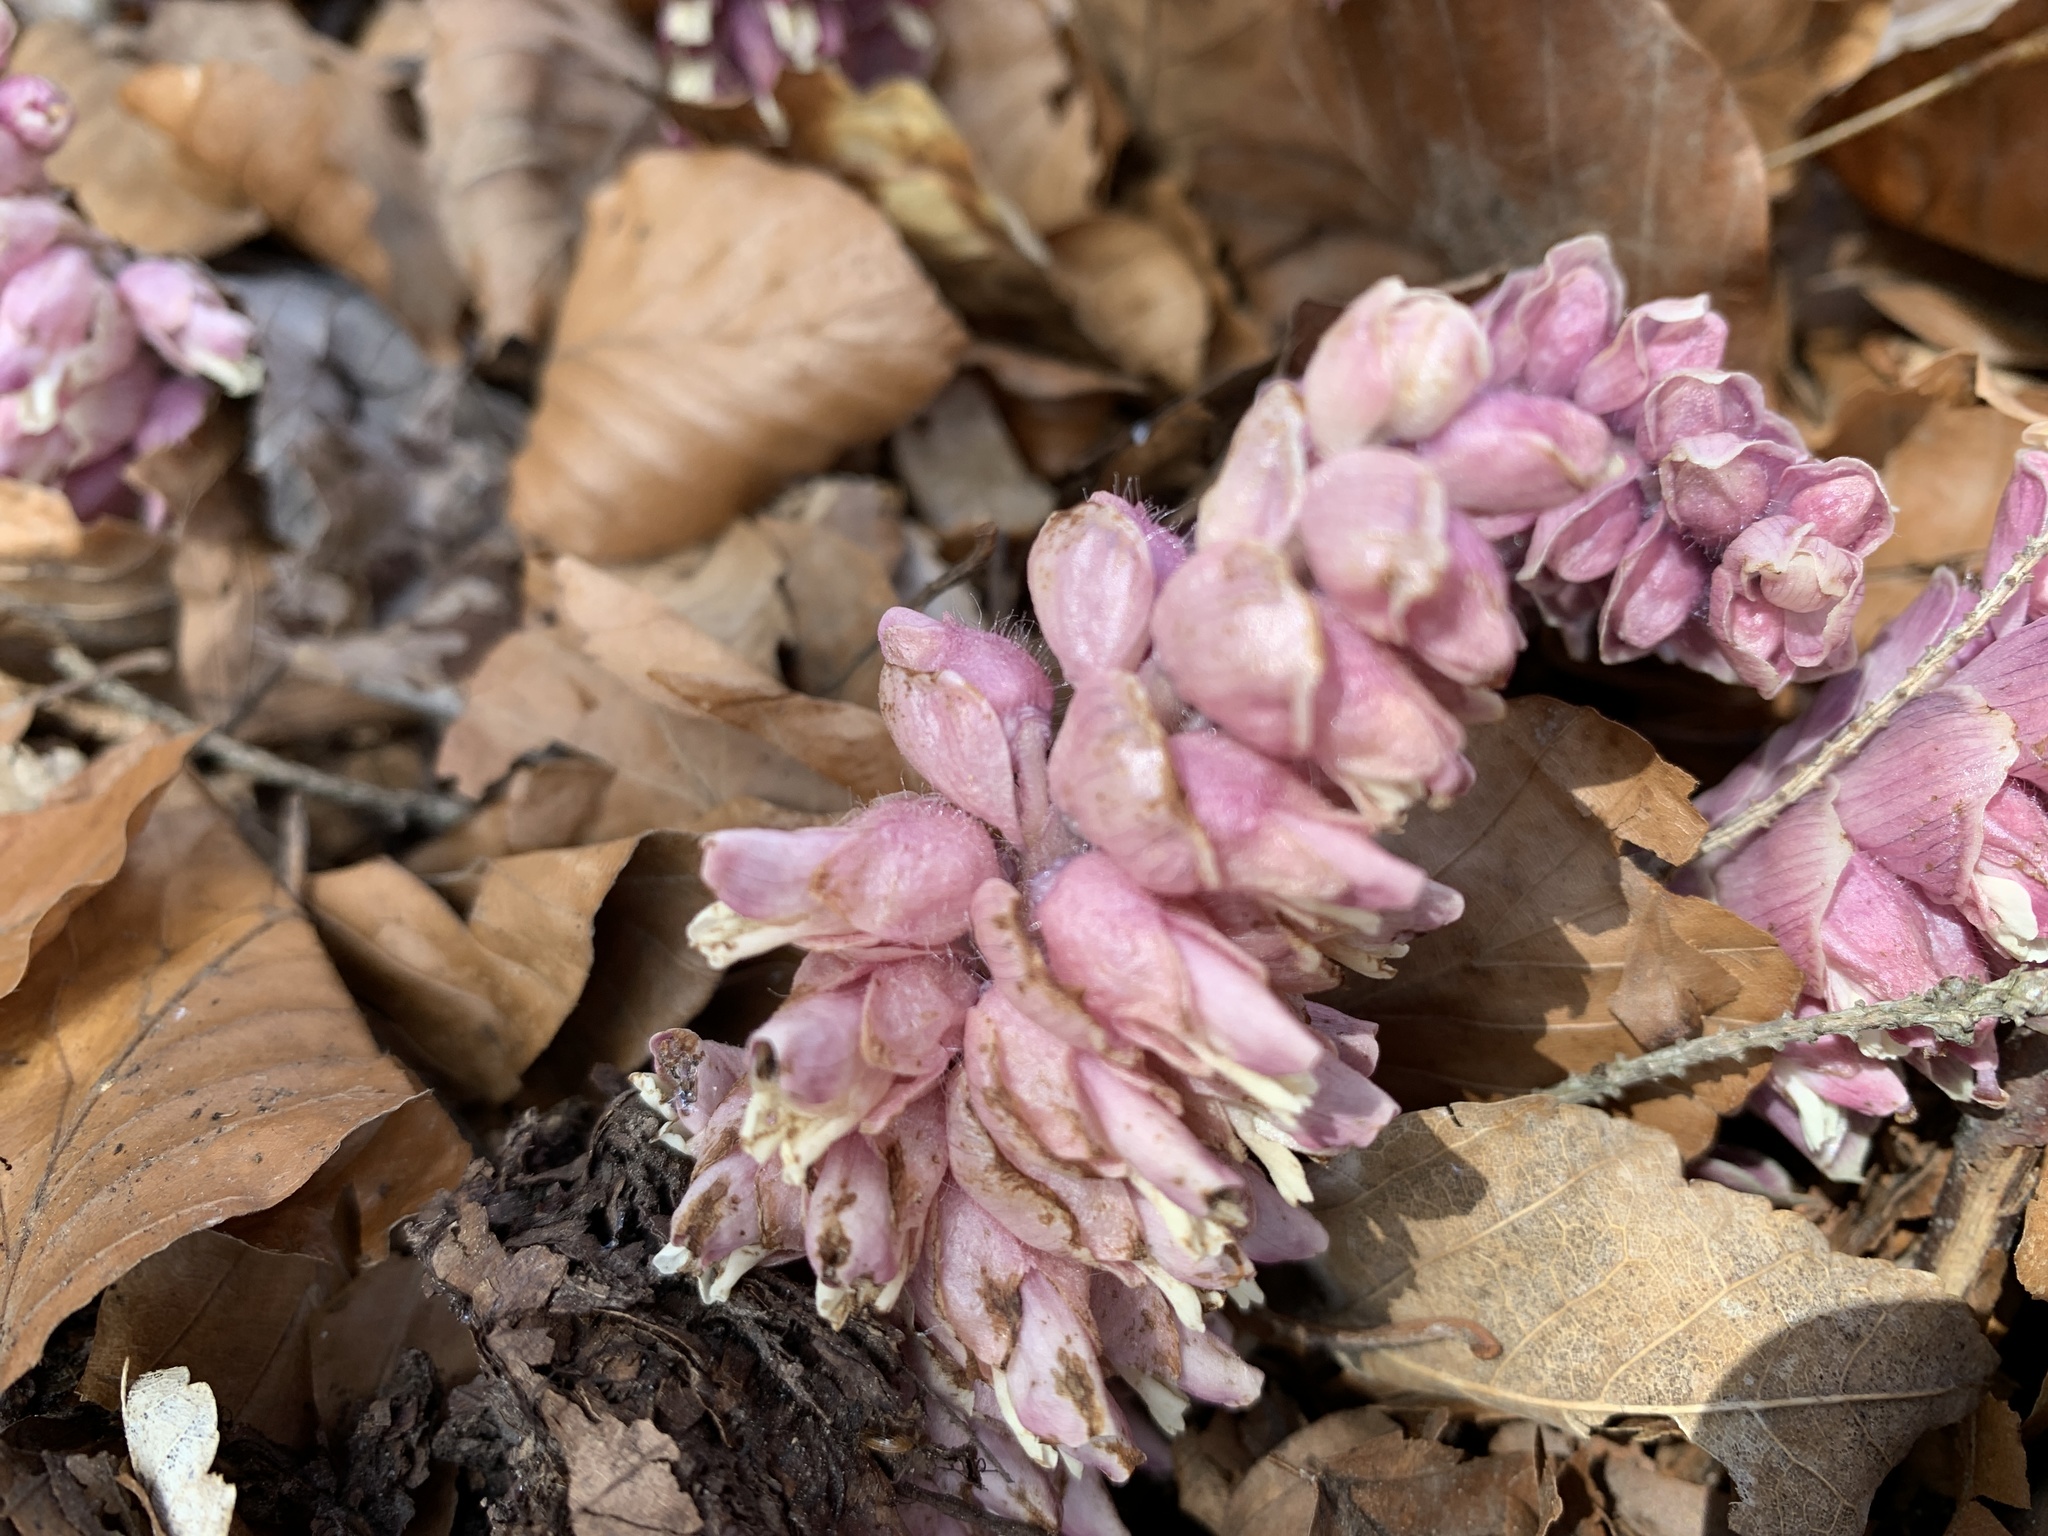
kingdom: Plantae
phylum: Tracheophyta
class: Magnoliopsida
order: Lamiales
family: Orobanchaceae
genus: Lathraea
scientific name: Lathraea squamaria
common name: Toothwort
